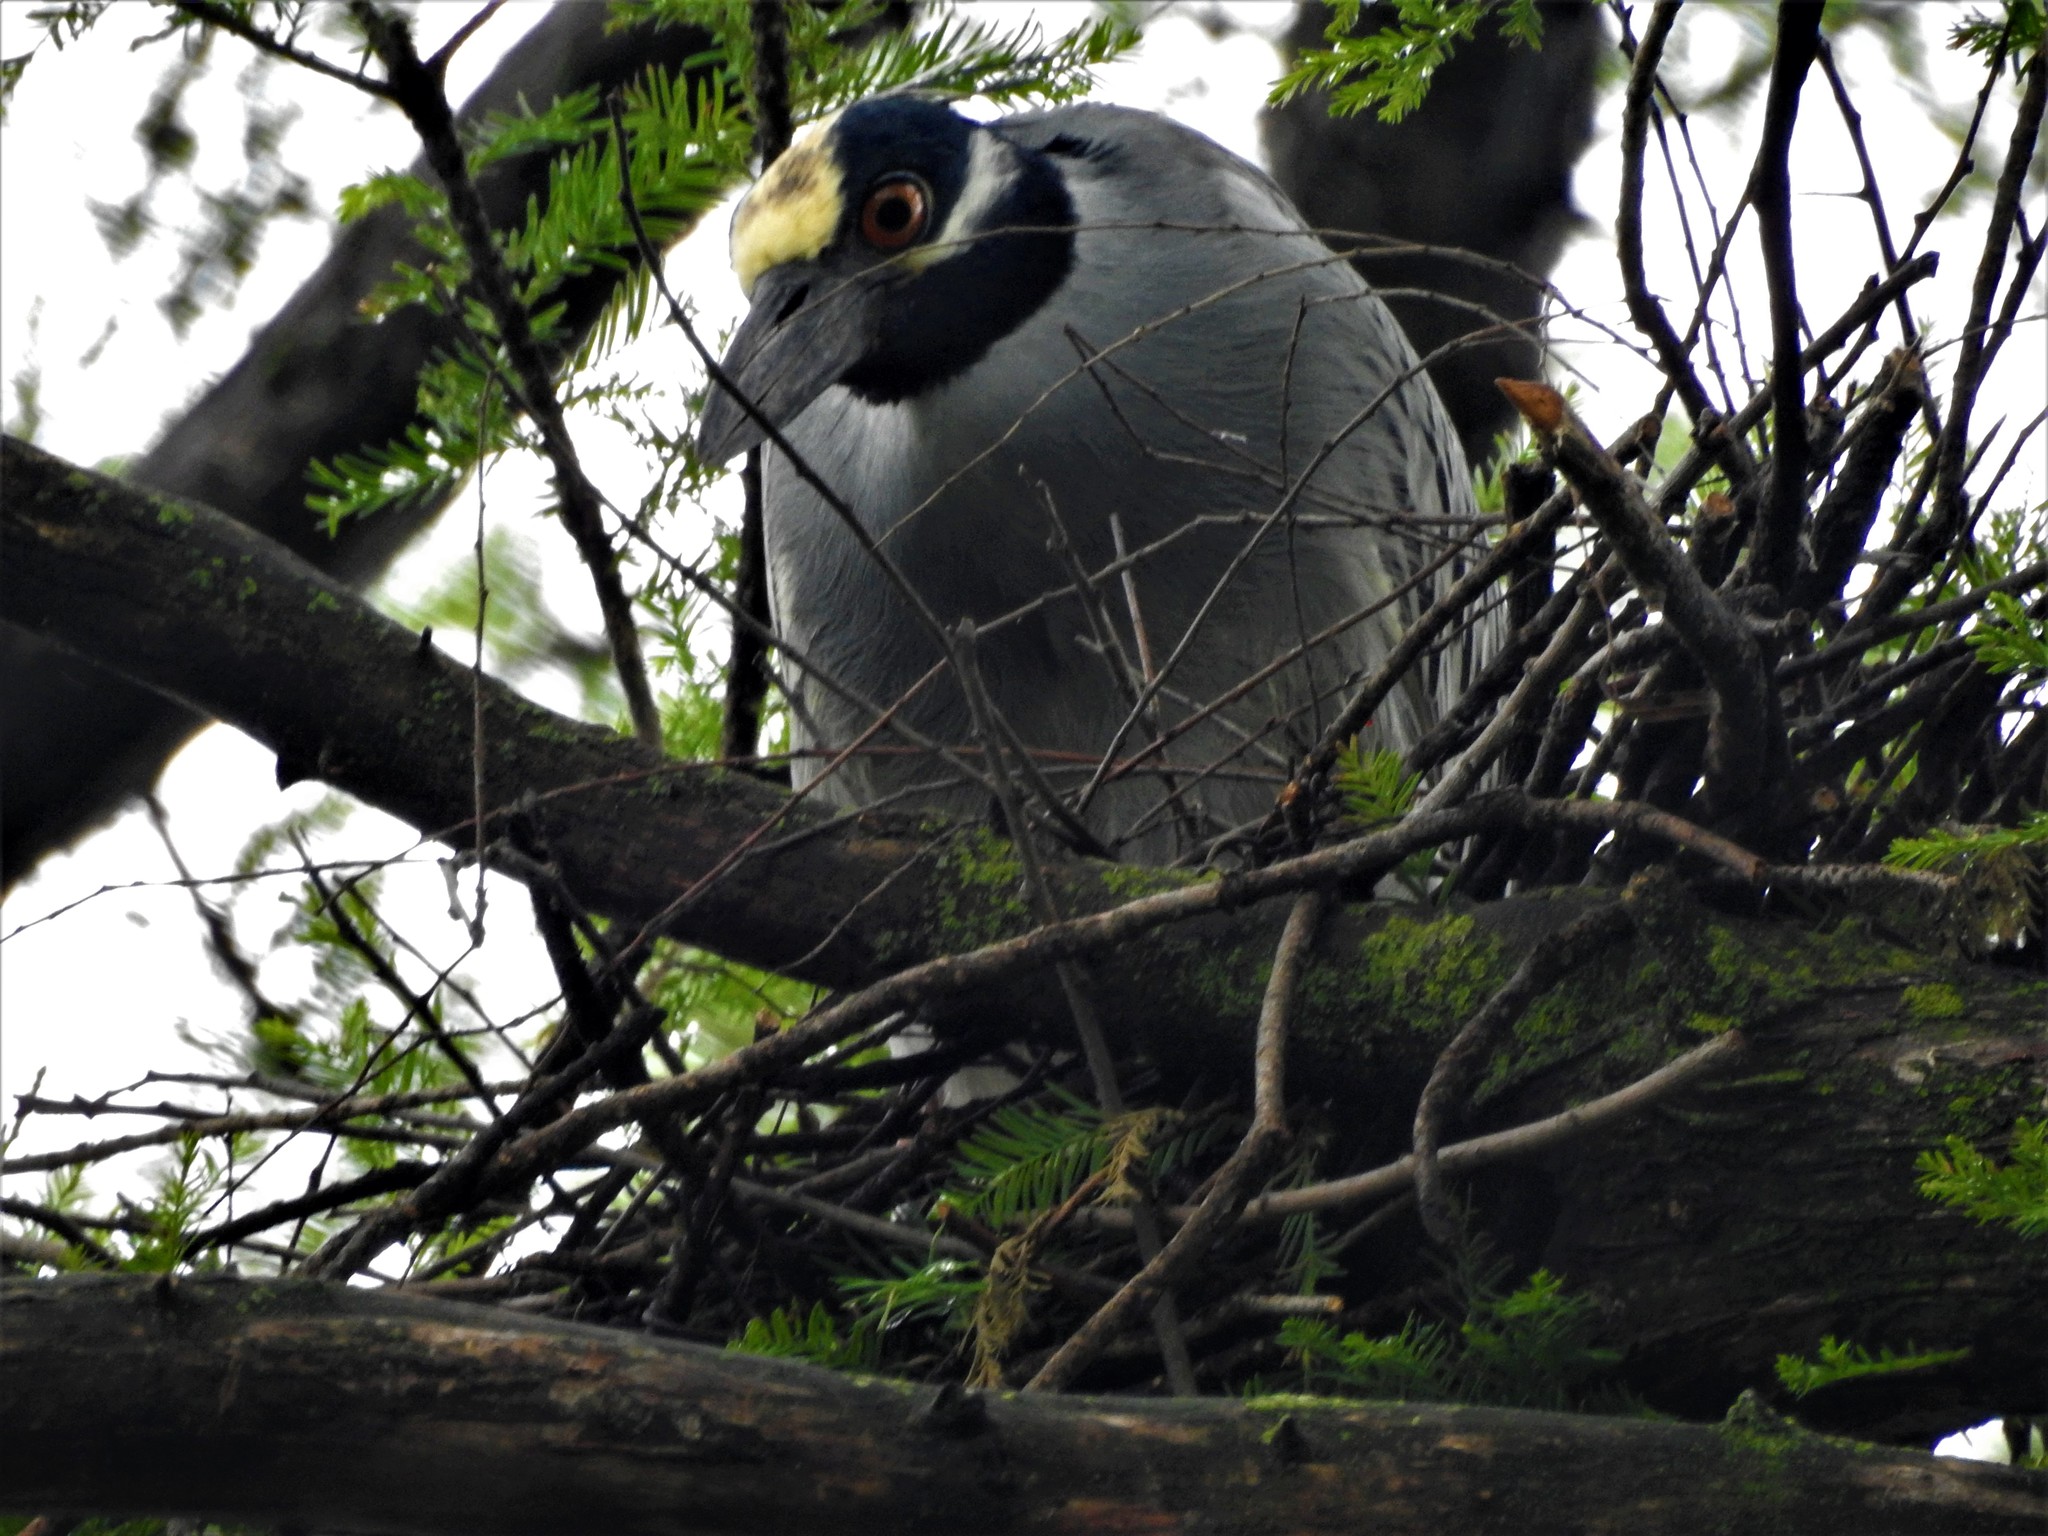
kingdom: Animalia
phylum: Chordata
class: Aves
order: Pelecaniformes
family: Ardeidae
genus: Nyctanassa
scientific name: Nyctanassa violacea
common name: Yellow-crowned night heron
